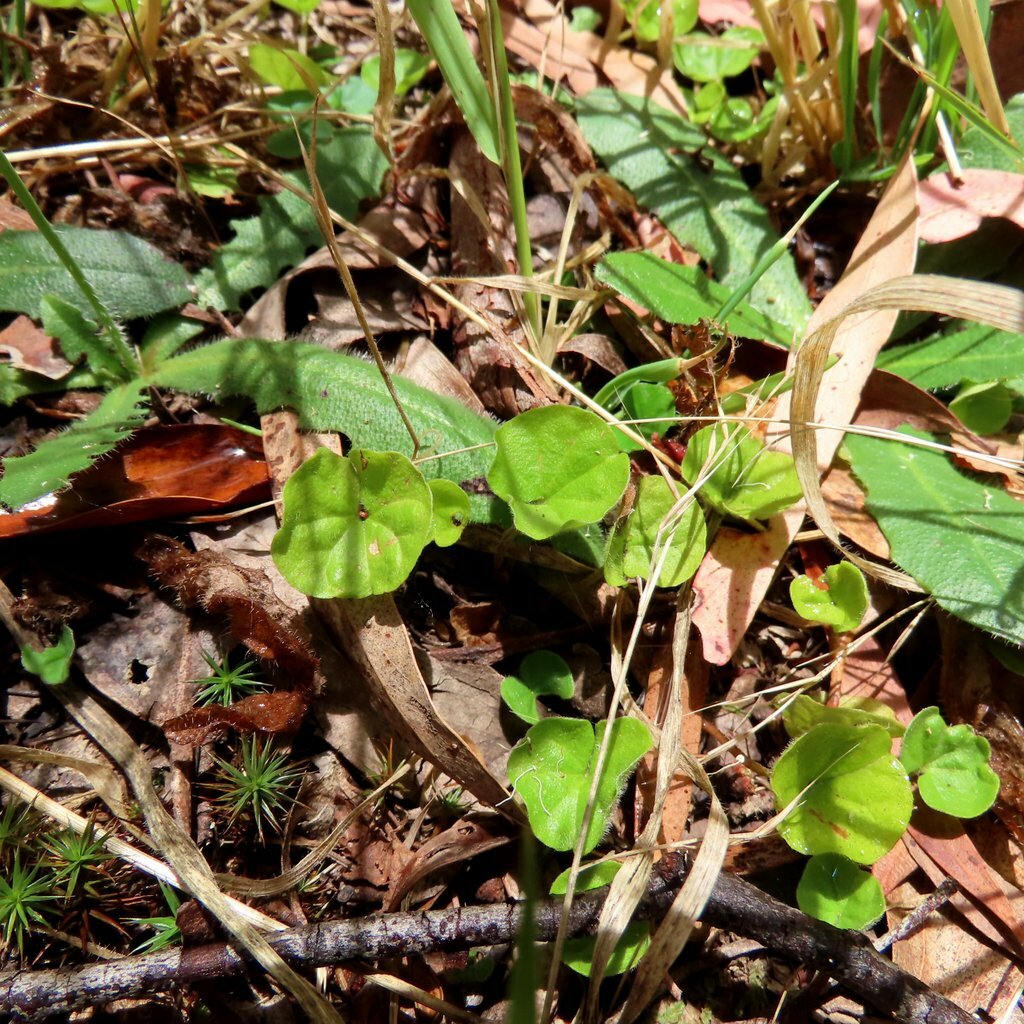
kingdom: Plantae
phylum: Tracheophyta
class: Magnoliopsida
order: Solanales
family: Convolvulaceae
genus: Dichondra
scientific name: Dichondra repens
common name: Kidneyweed
